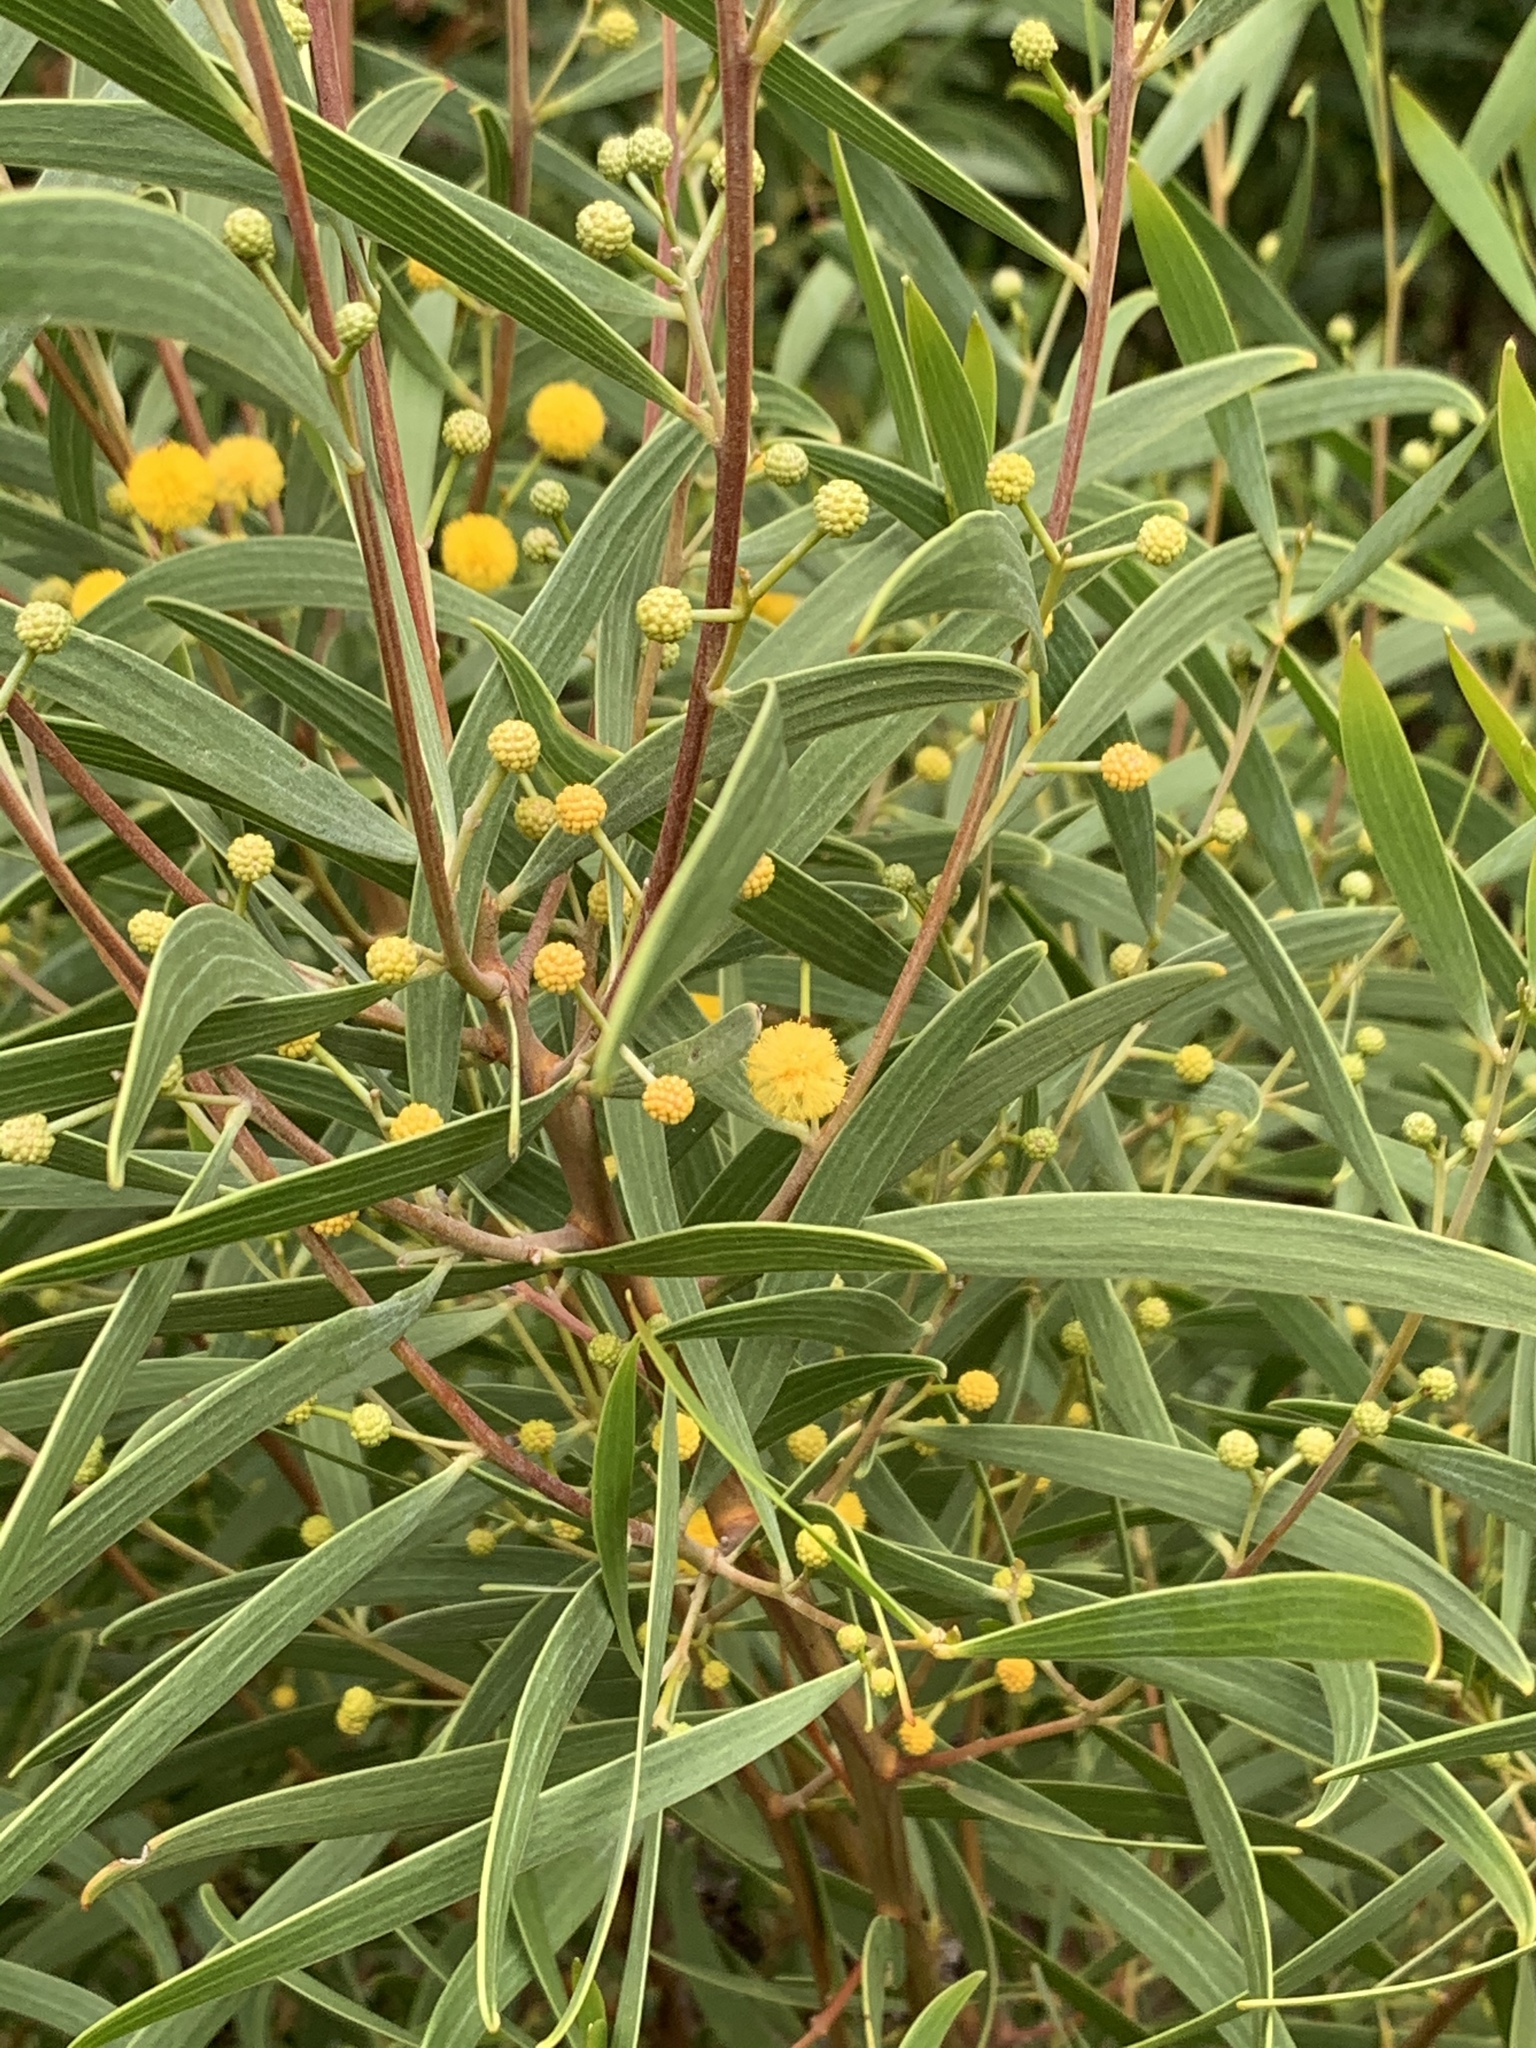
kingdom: Plantae
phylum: Tracheophyta
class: Magnoliopsida
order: Fabales
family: Fabaceae
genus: Acacia
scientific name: Acacia cyclops
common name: Coastal wattle
